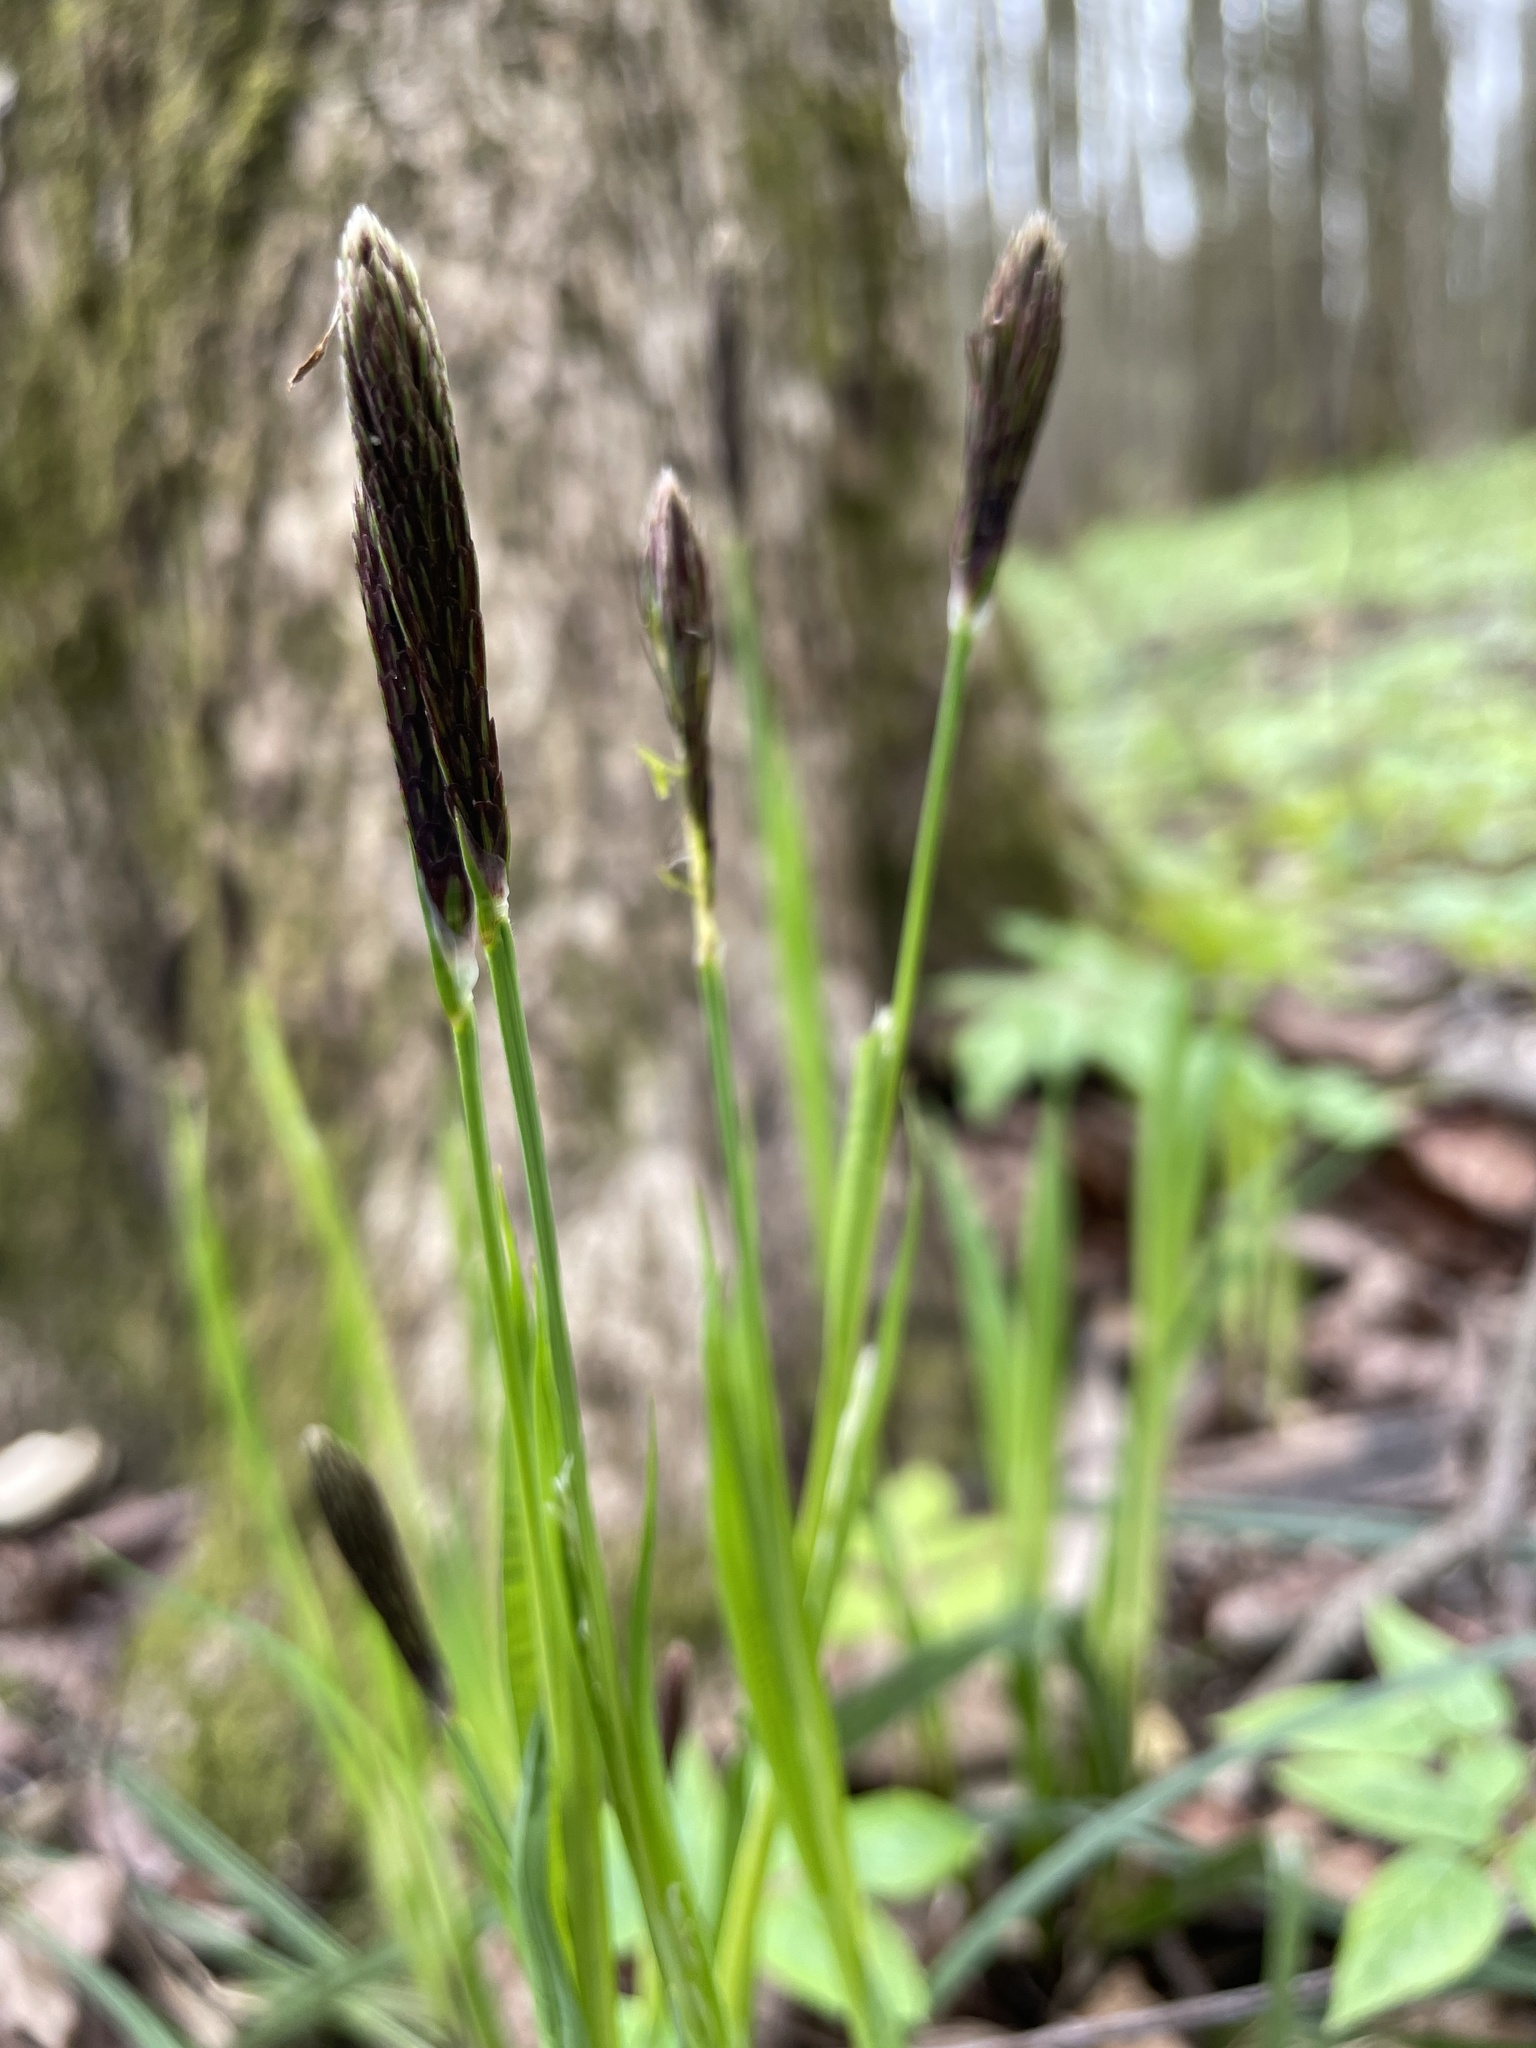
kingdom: Plantae
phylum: Tracheophyta
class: Liliopsida
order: Poales
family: Cyperaceae
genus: Carex
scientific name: Carex pilosa
